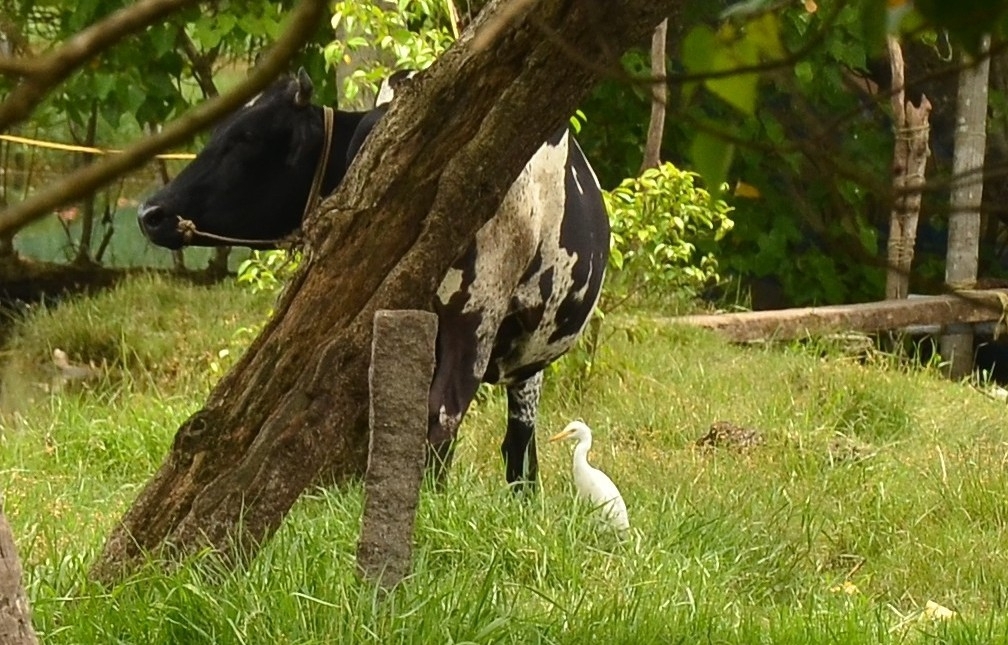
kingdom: Animalia
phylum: Chordata
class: Aves
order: Pelecaniformes
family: Ardeidae
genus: Bubulcus
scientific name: Bubulcus coromandus
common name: Eastern cattle egret
